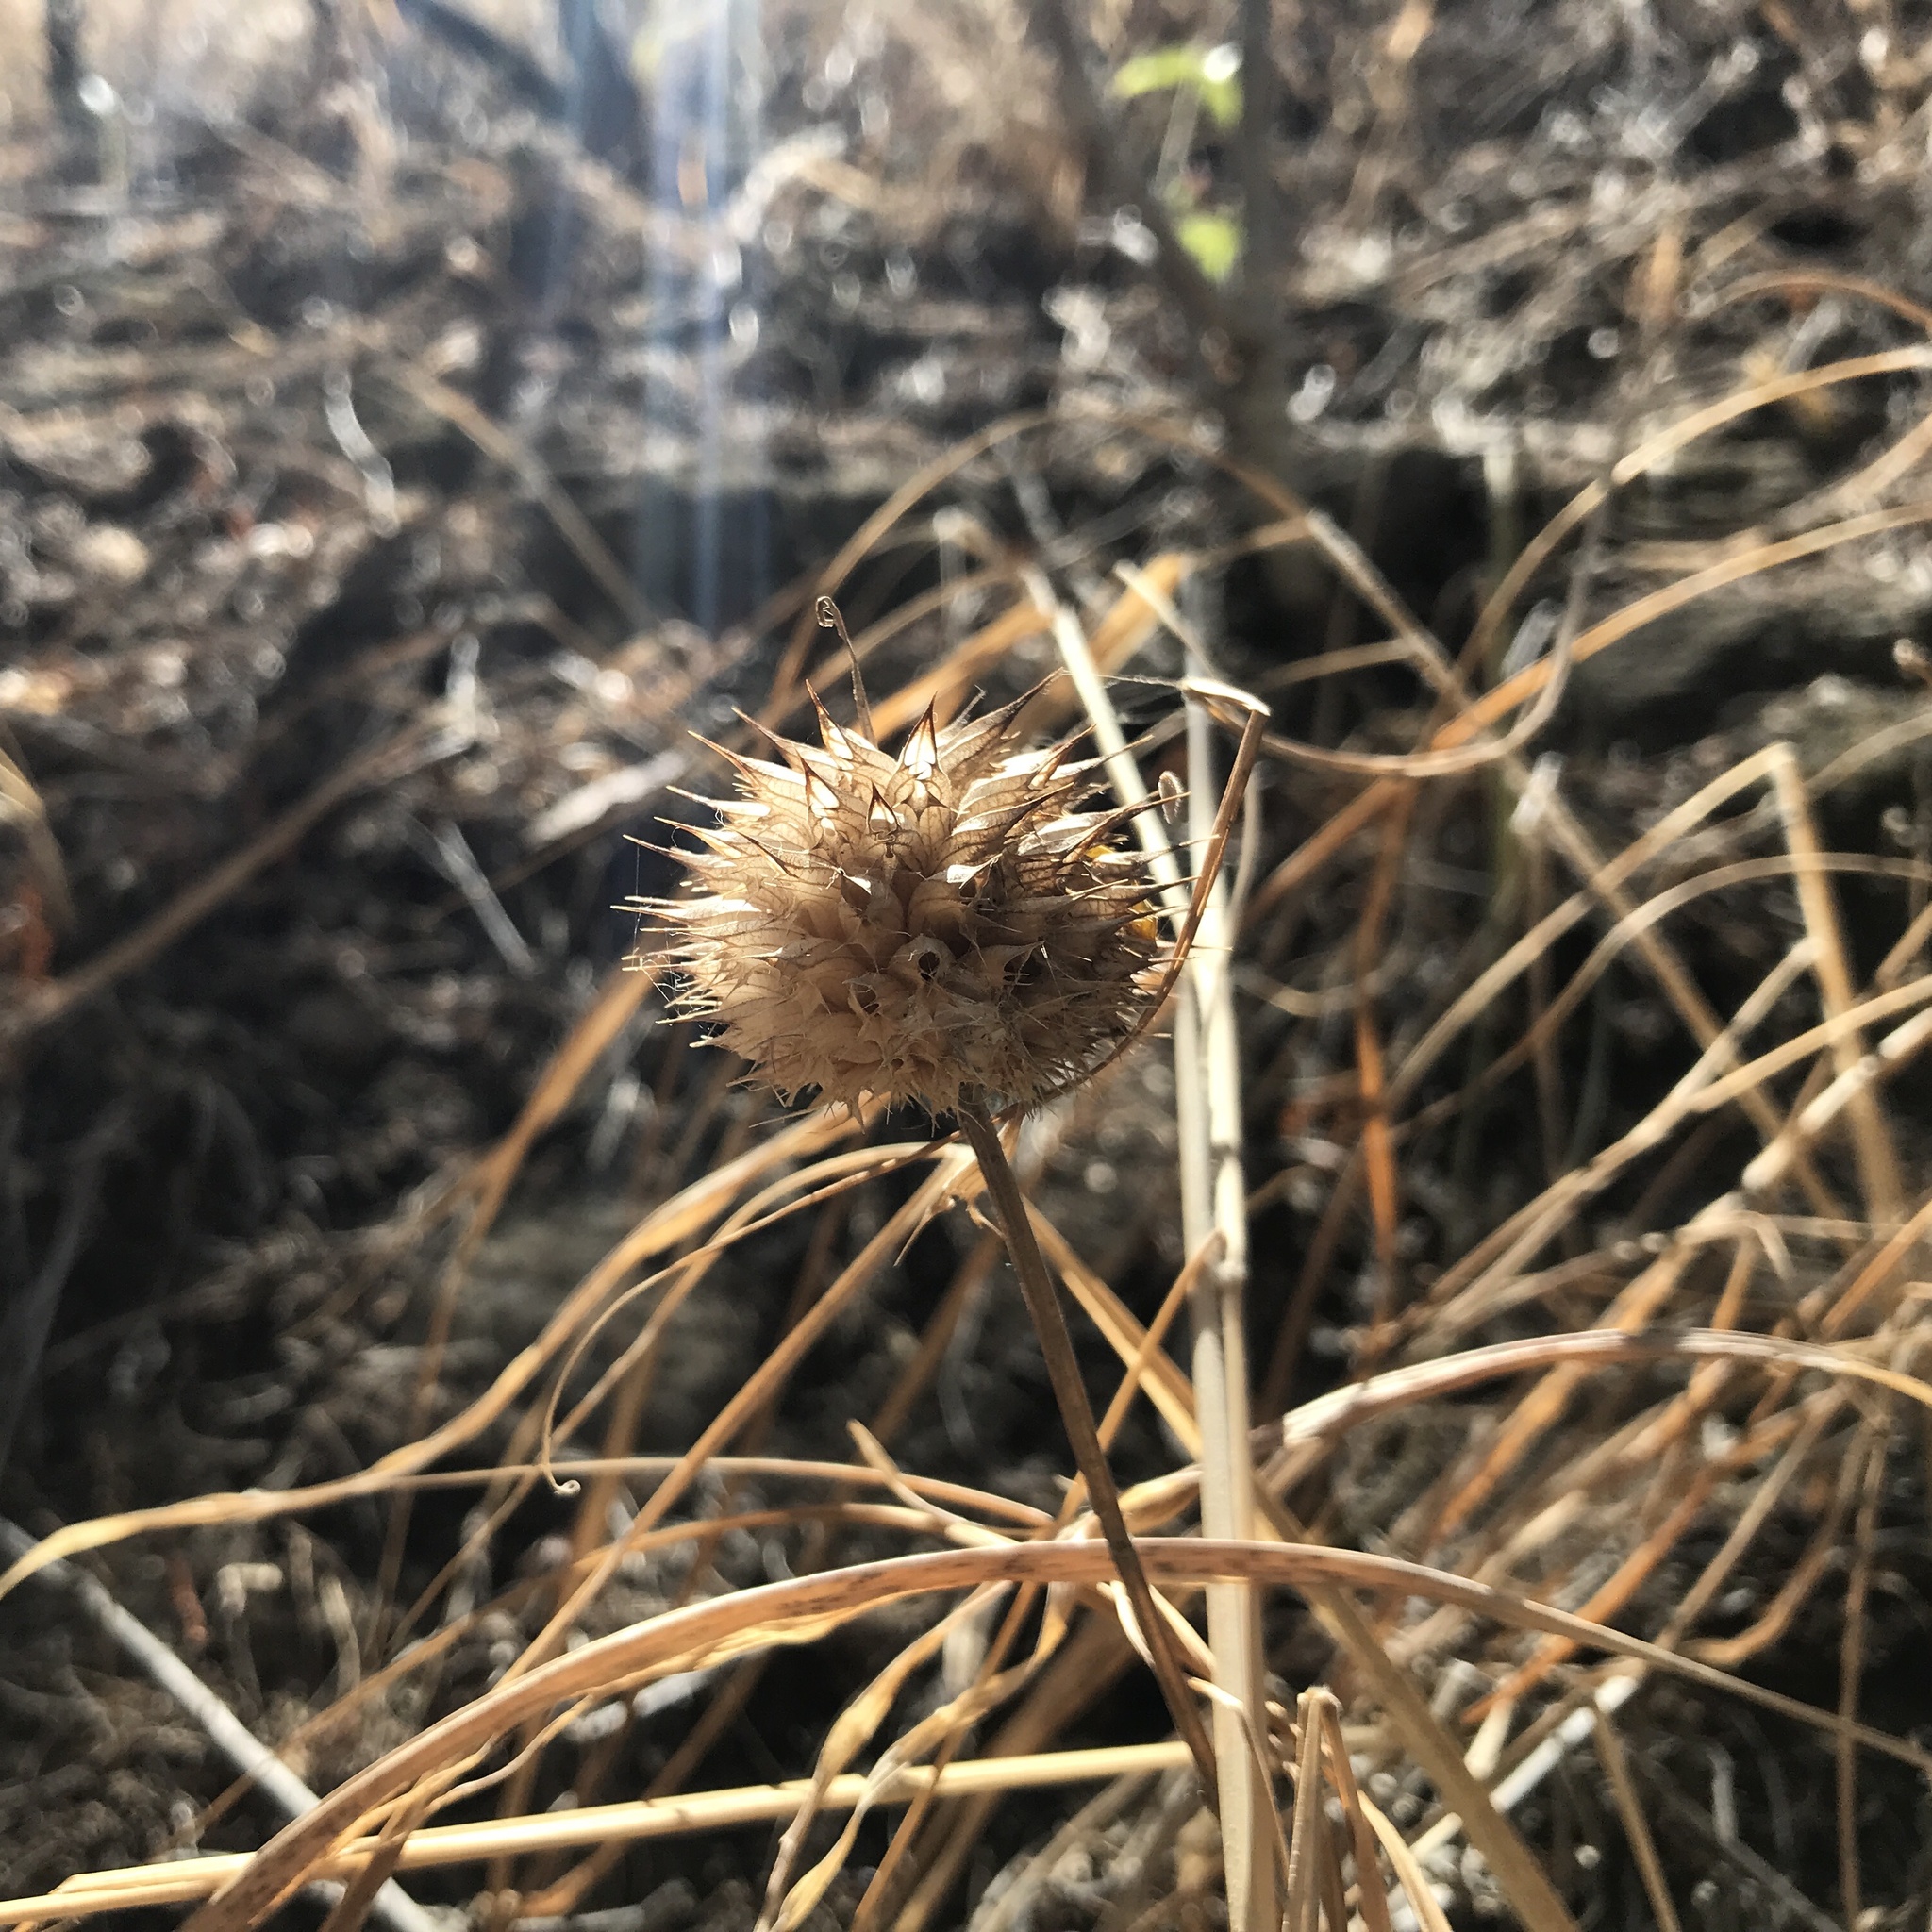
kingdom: Plantae
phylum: Tracheophyta
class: Magnoliopsida
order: Lamiales
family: Lamiaceae
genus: Leonotis
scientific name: Leonotis nepetifolia
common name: Christmas candlestick
